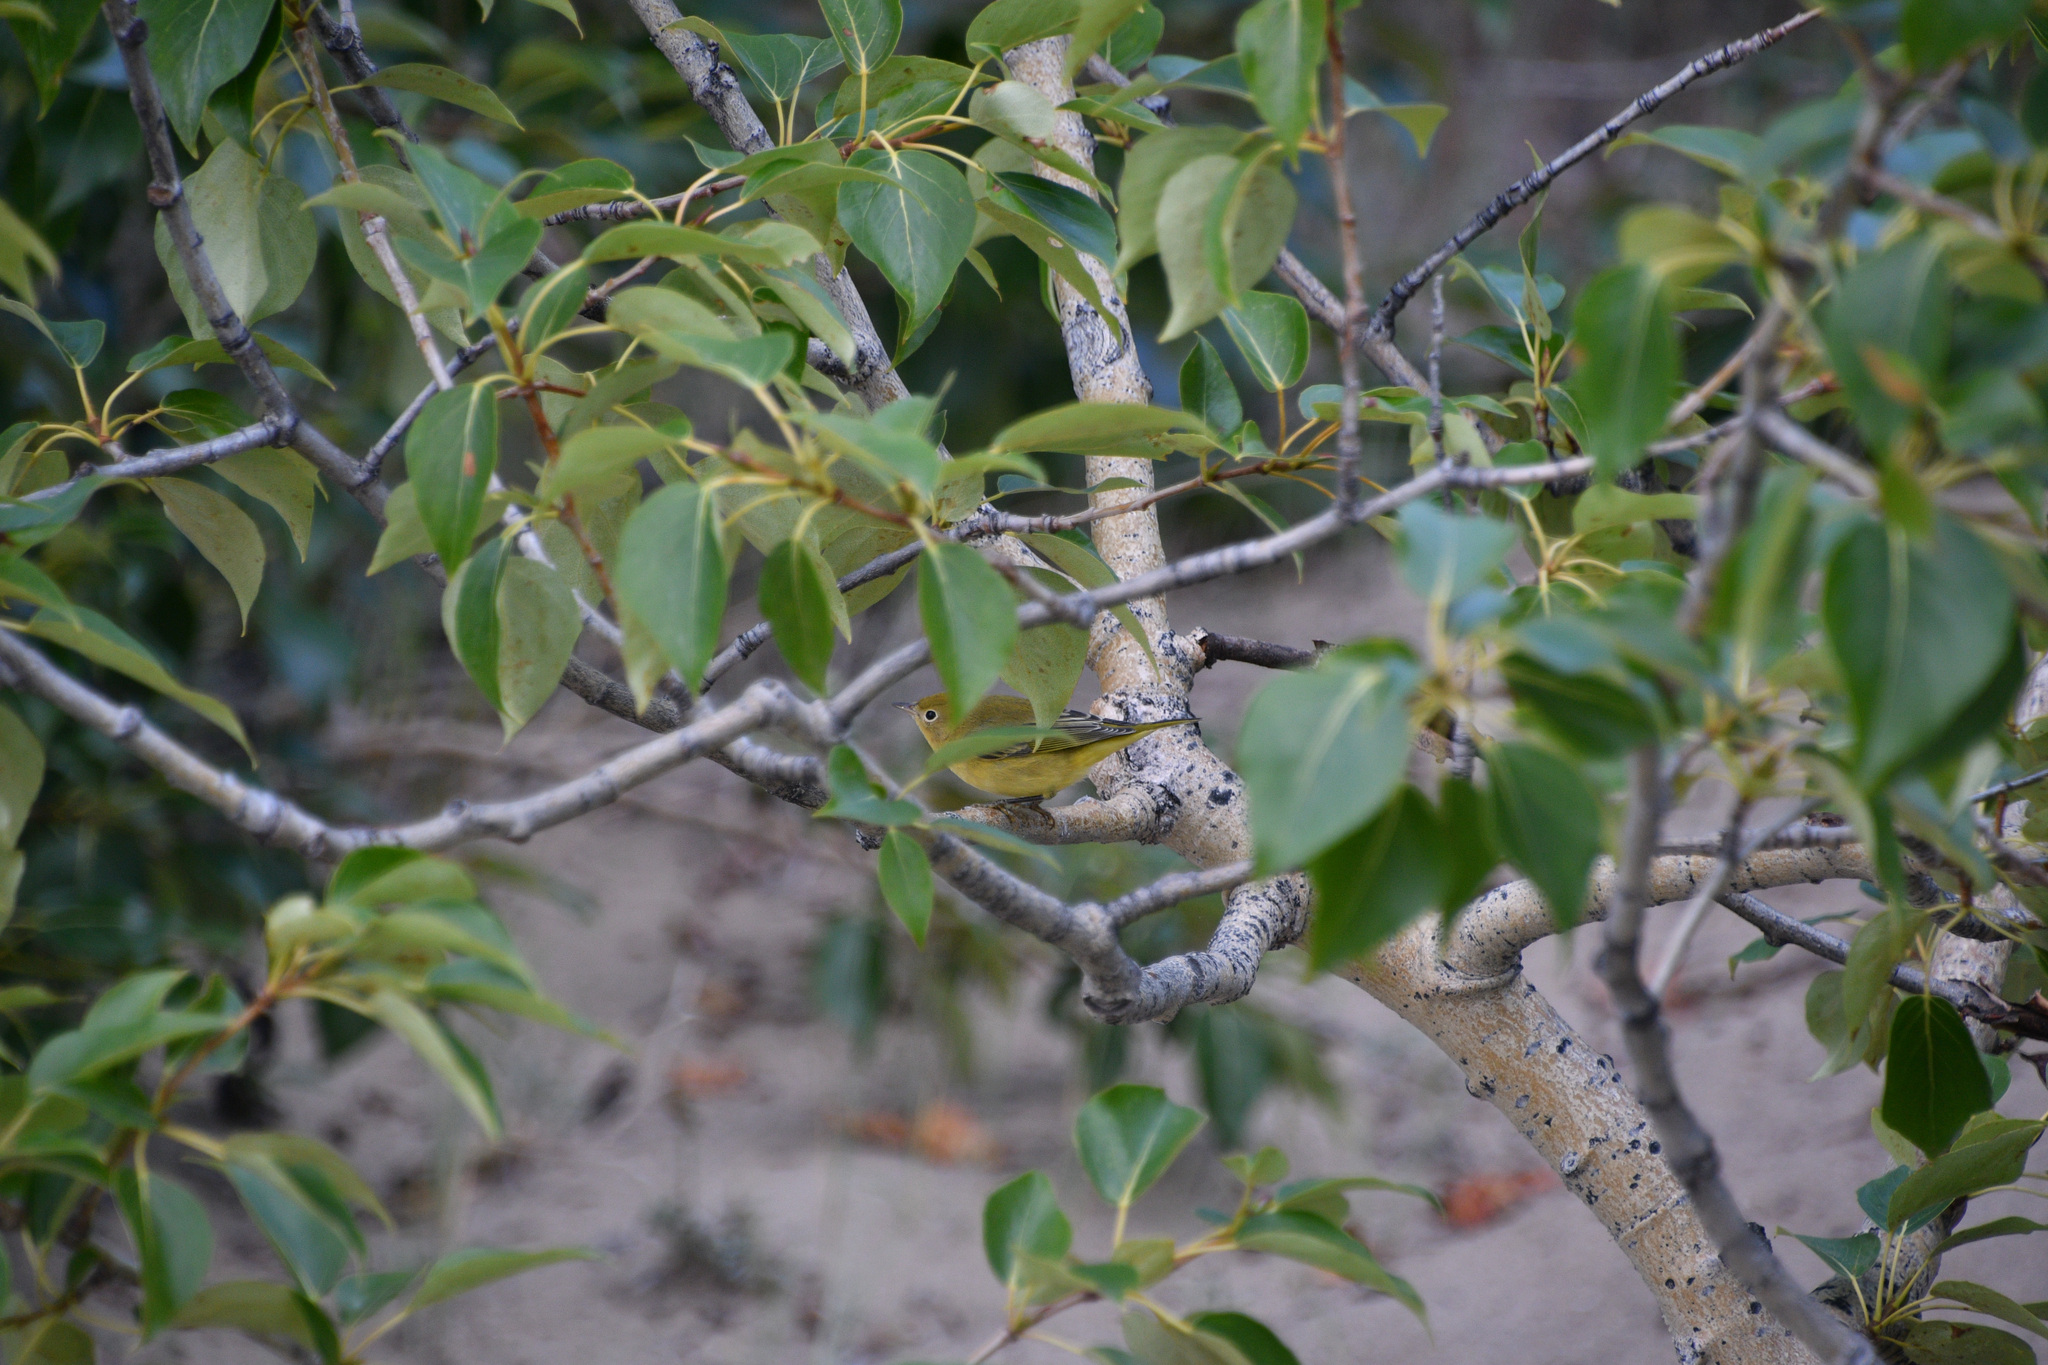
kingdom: Animalia
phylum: Chordata
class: Aves
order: Passeriformes
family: Parulidae
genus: Setophaga
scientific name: Setophaga petechia
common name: Yellow warbler
